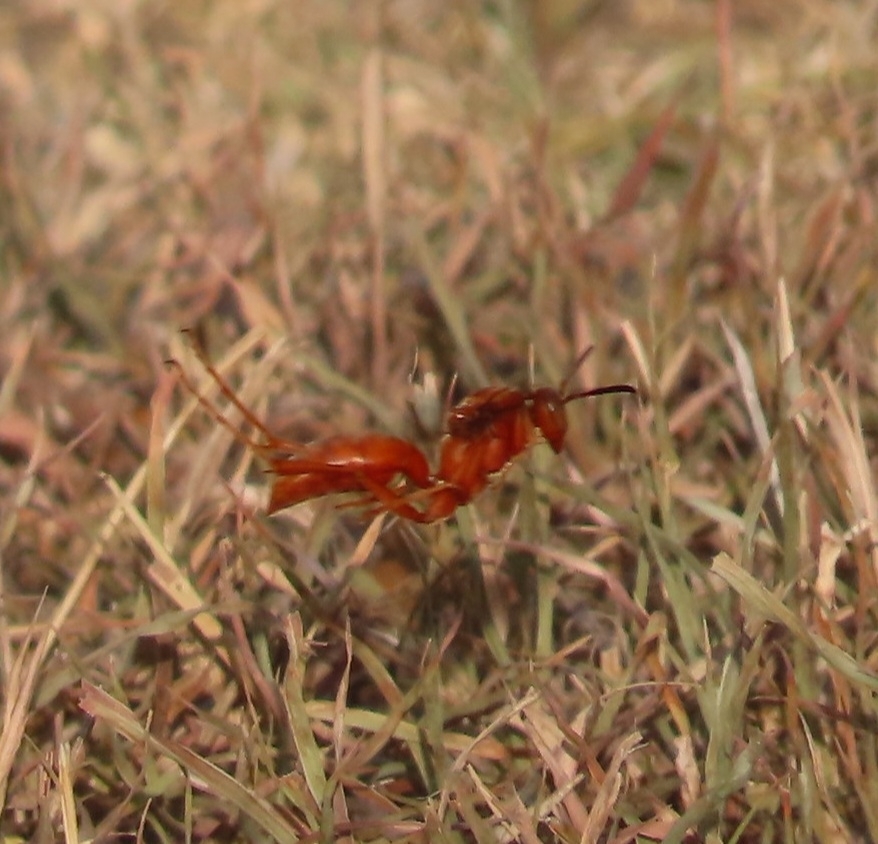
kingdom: Animalia
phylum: Arthropoda
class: Insecta
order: Hymenoptera
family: Vespidae
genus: Fuscopolistes
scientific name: Fuscopolistes
